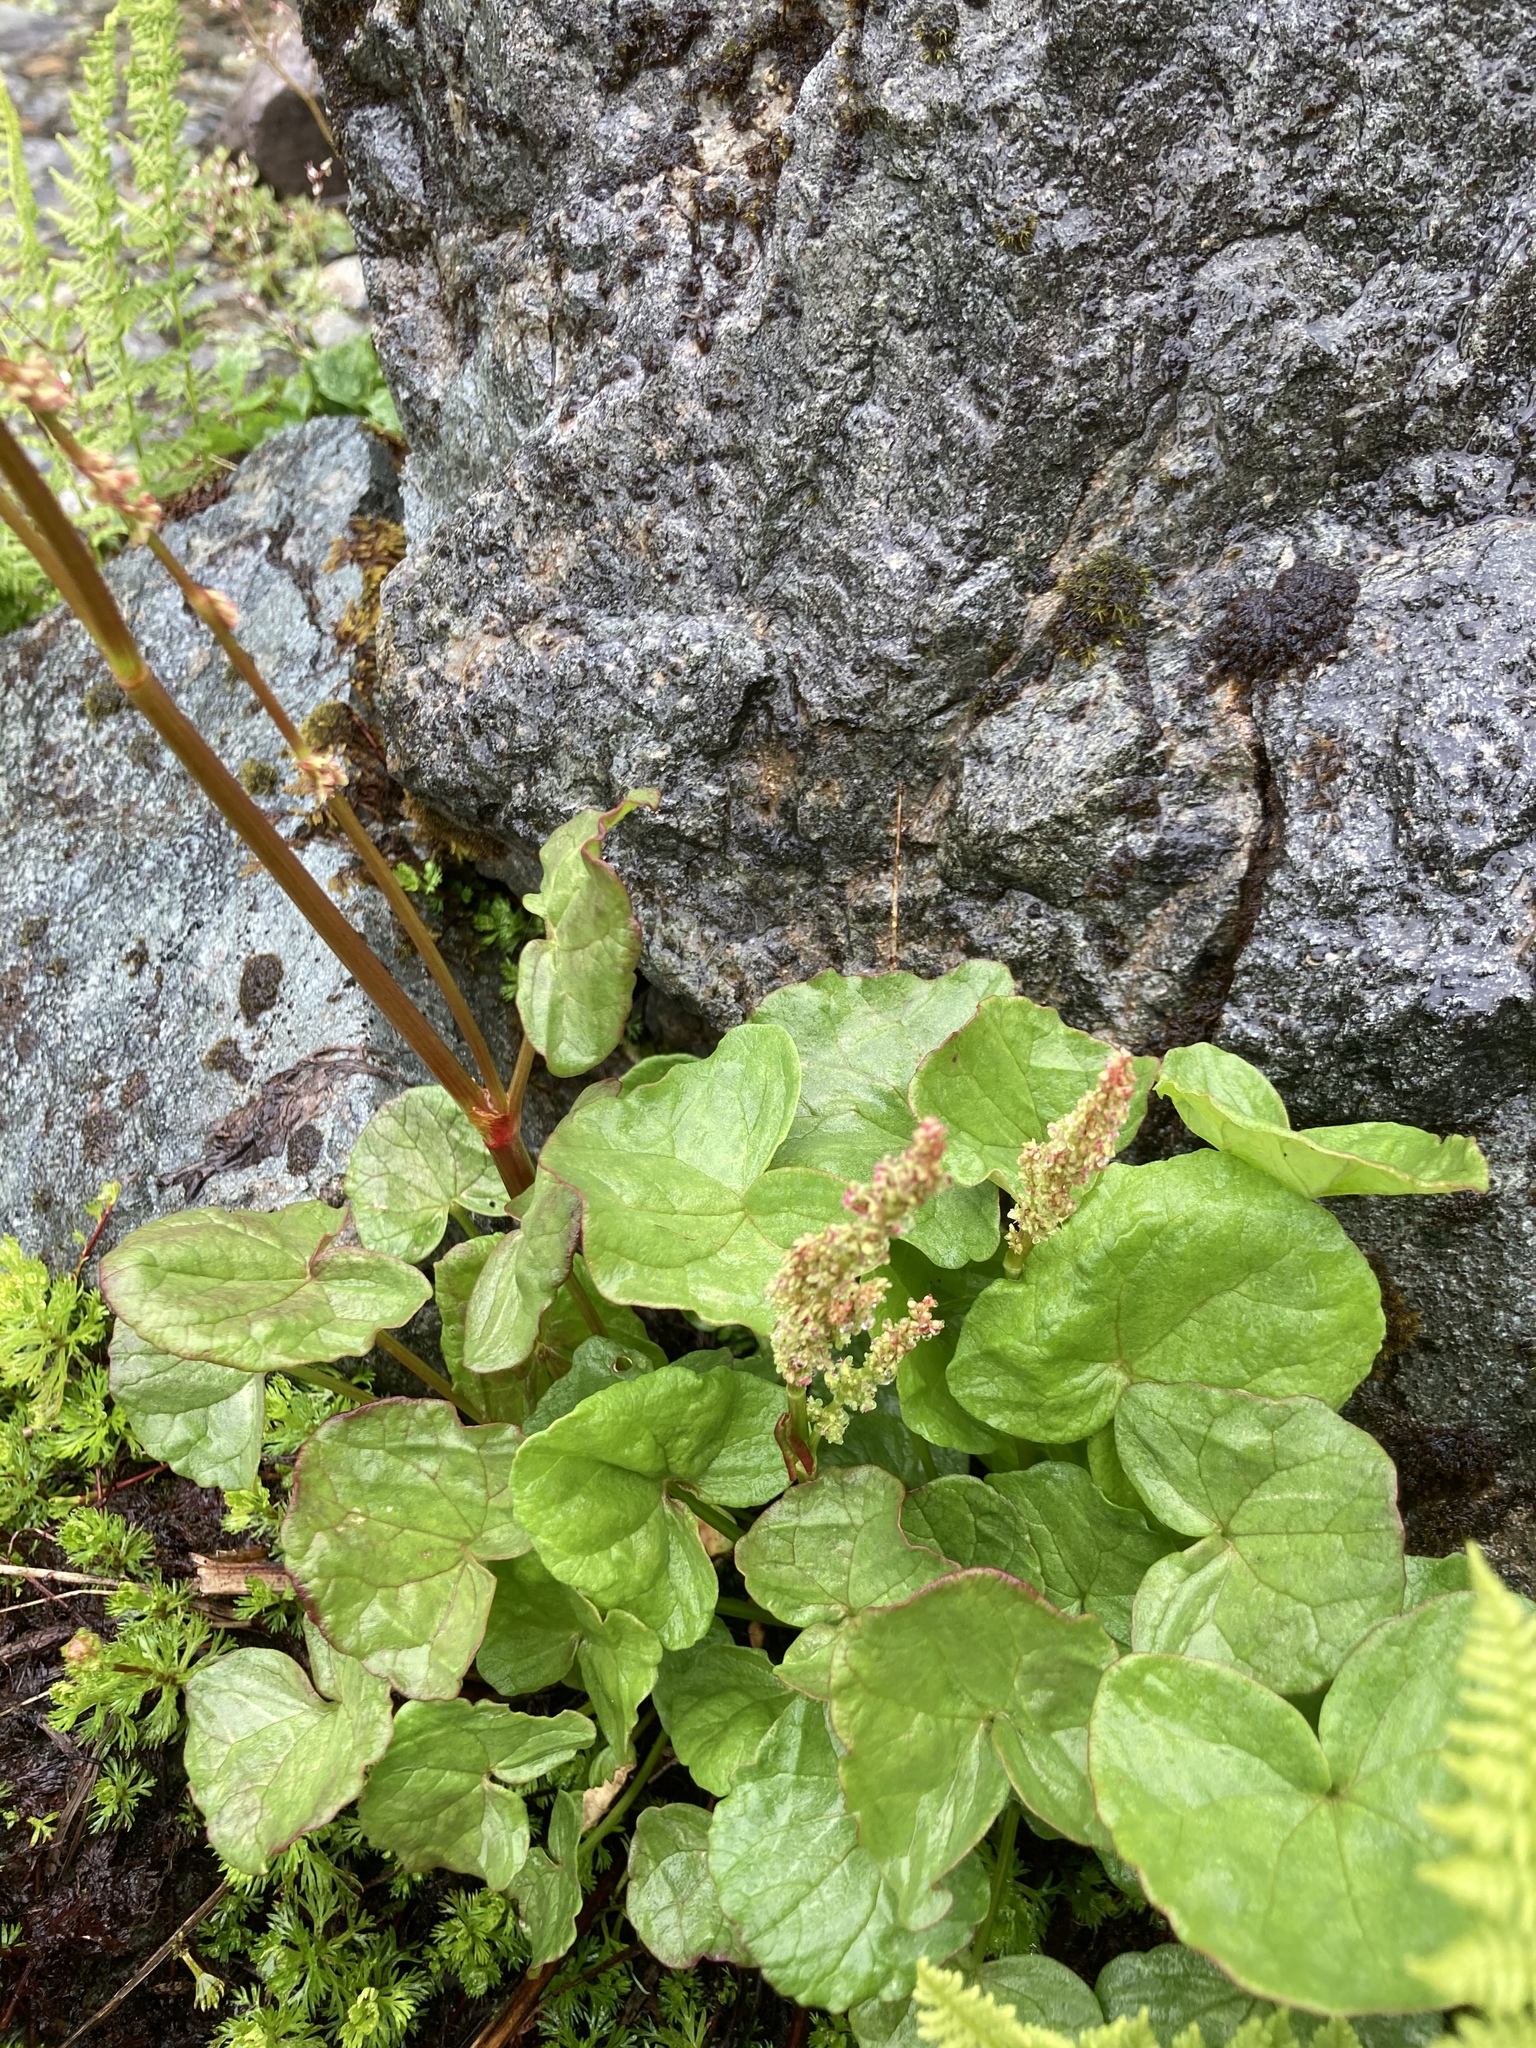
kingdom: Plantae
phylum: Tracheophyta
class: Magnoliopsida
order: Caryophyllales
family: Polygonaceae
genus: Oxyria
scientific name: Oxyria digyna
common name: Alpine mountain-sorrel
